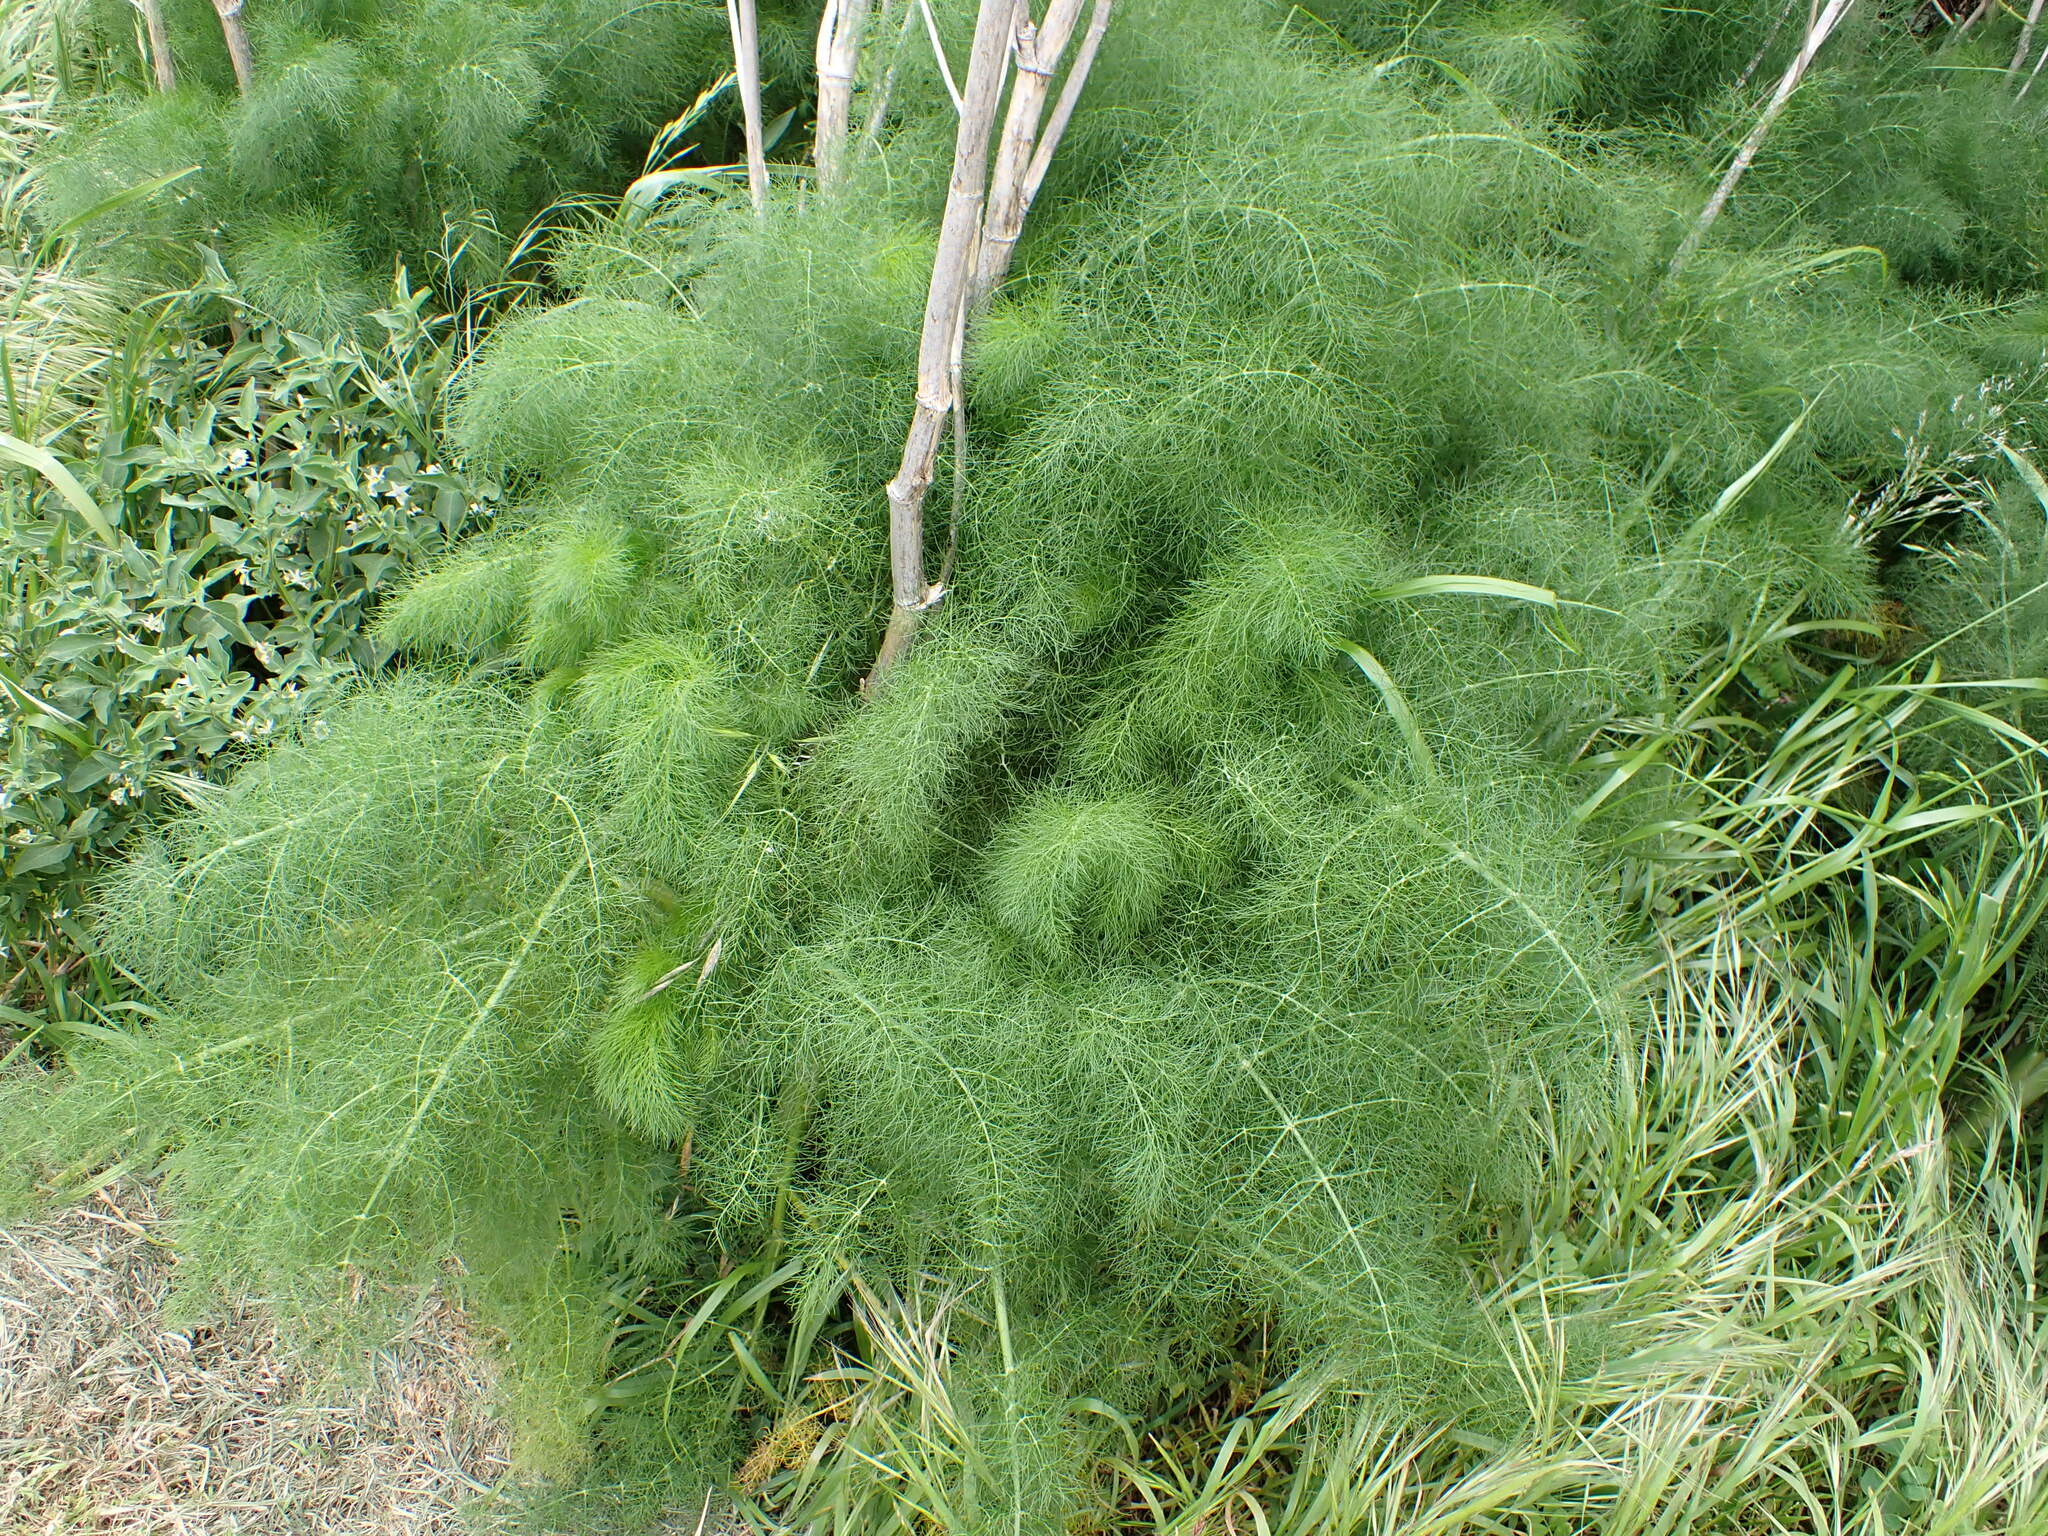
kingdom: Plantae
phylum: Tracheophyta
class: Magnoliopsida
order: Apiales
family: Apiaceae
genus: Foeniculum
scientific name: Foeniculum vulgare
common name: Fennel
